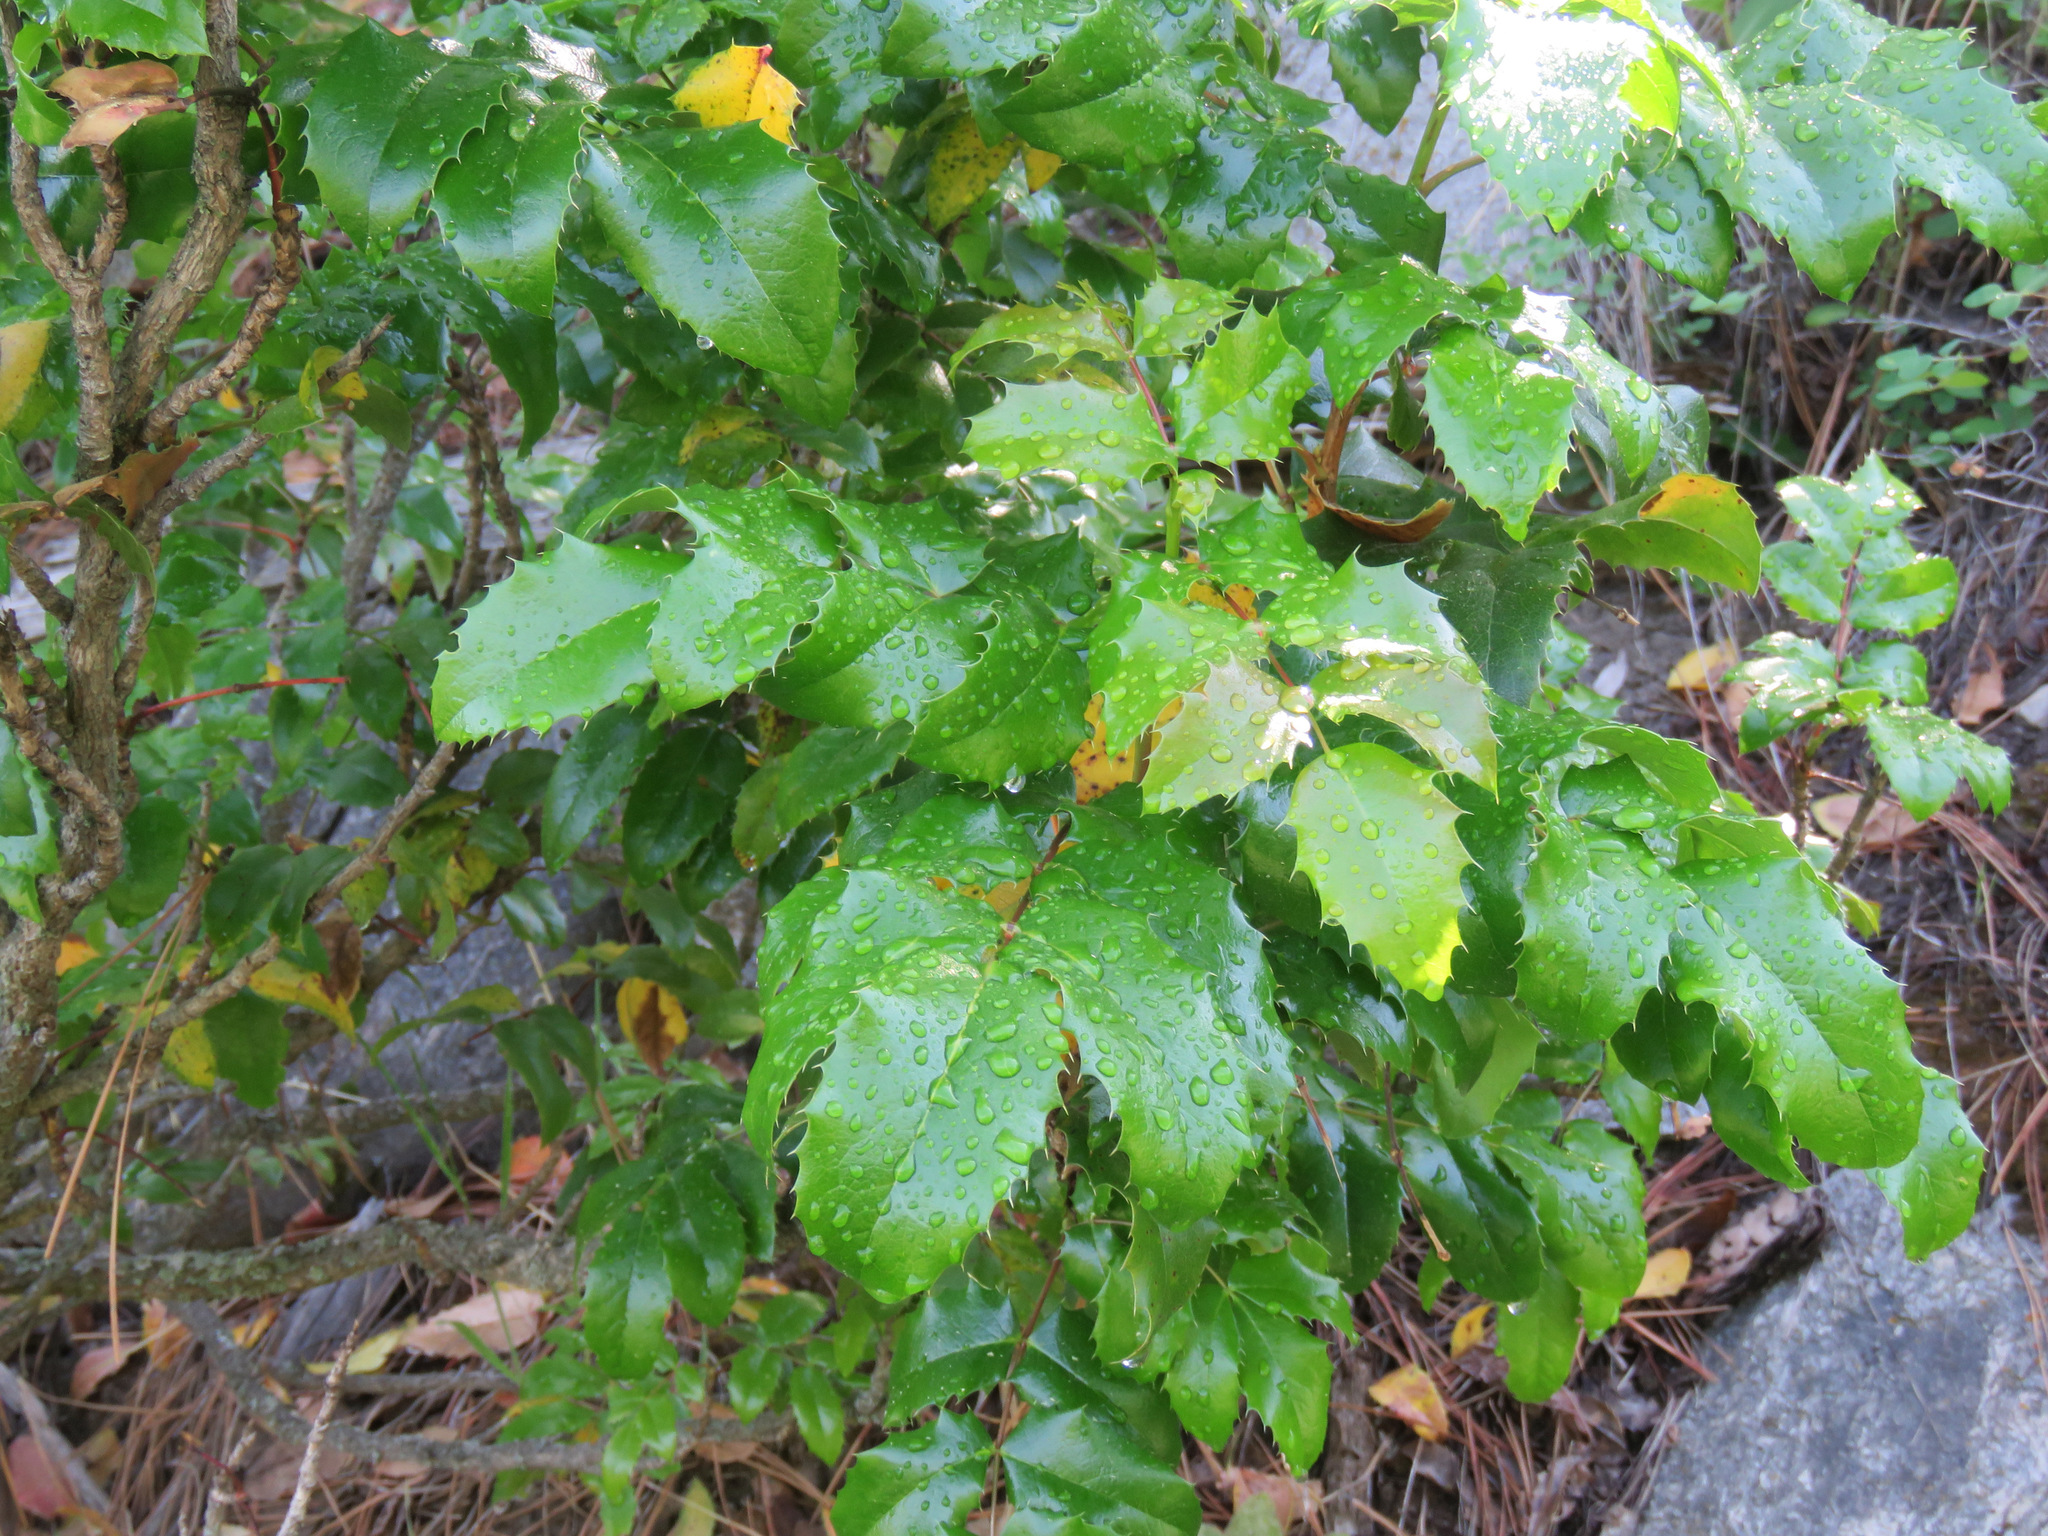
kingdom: Plantae
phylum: Tracheophyta
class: Magnoliopsida
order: Ranunculales
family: Berberidaceae
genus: Mahonia
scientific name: Mahonia aquifolium
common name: Oregon-grape
